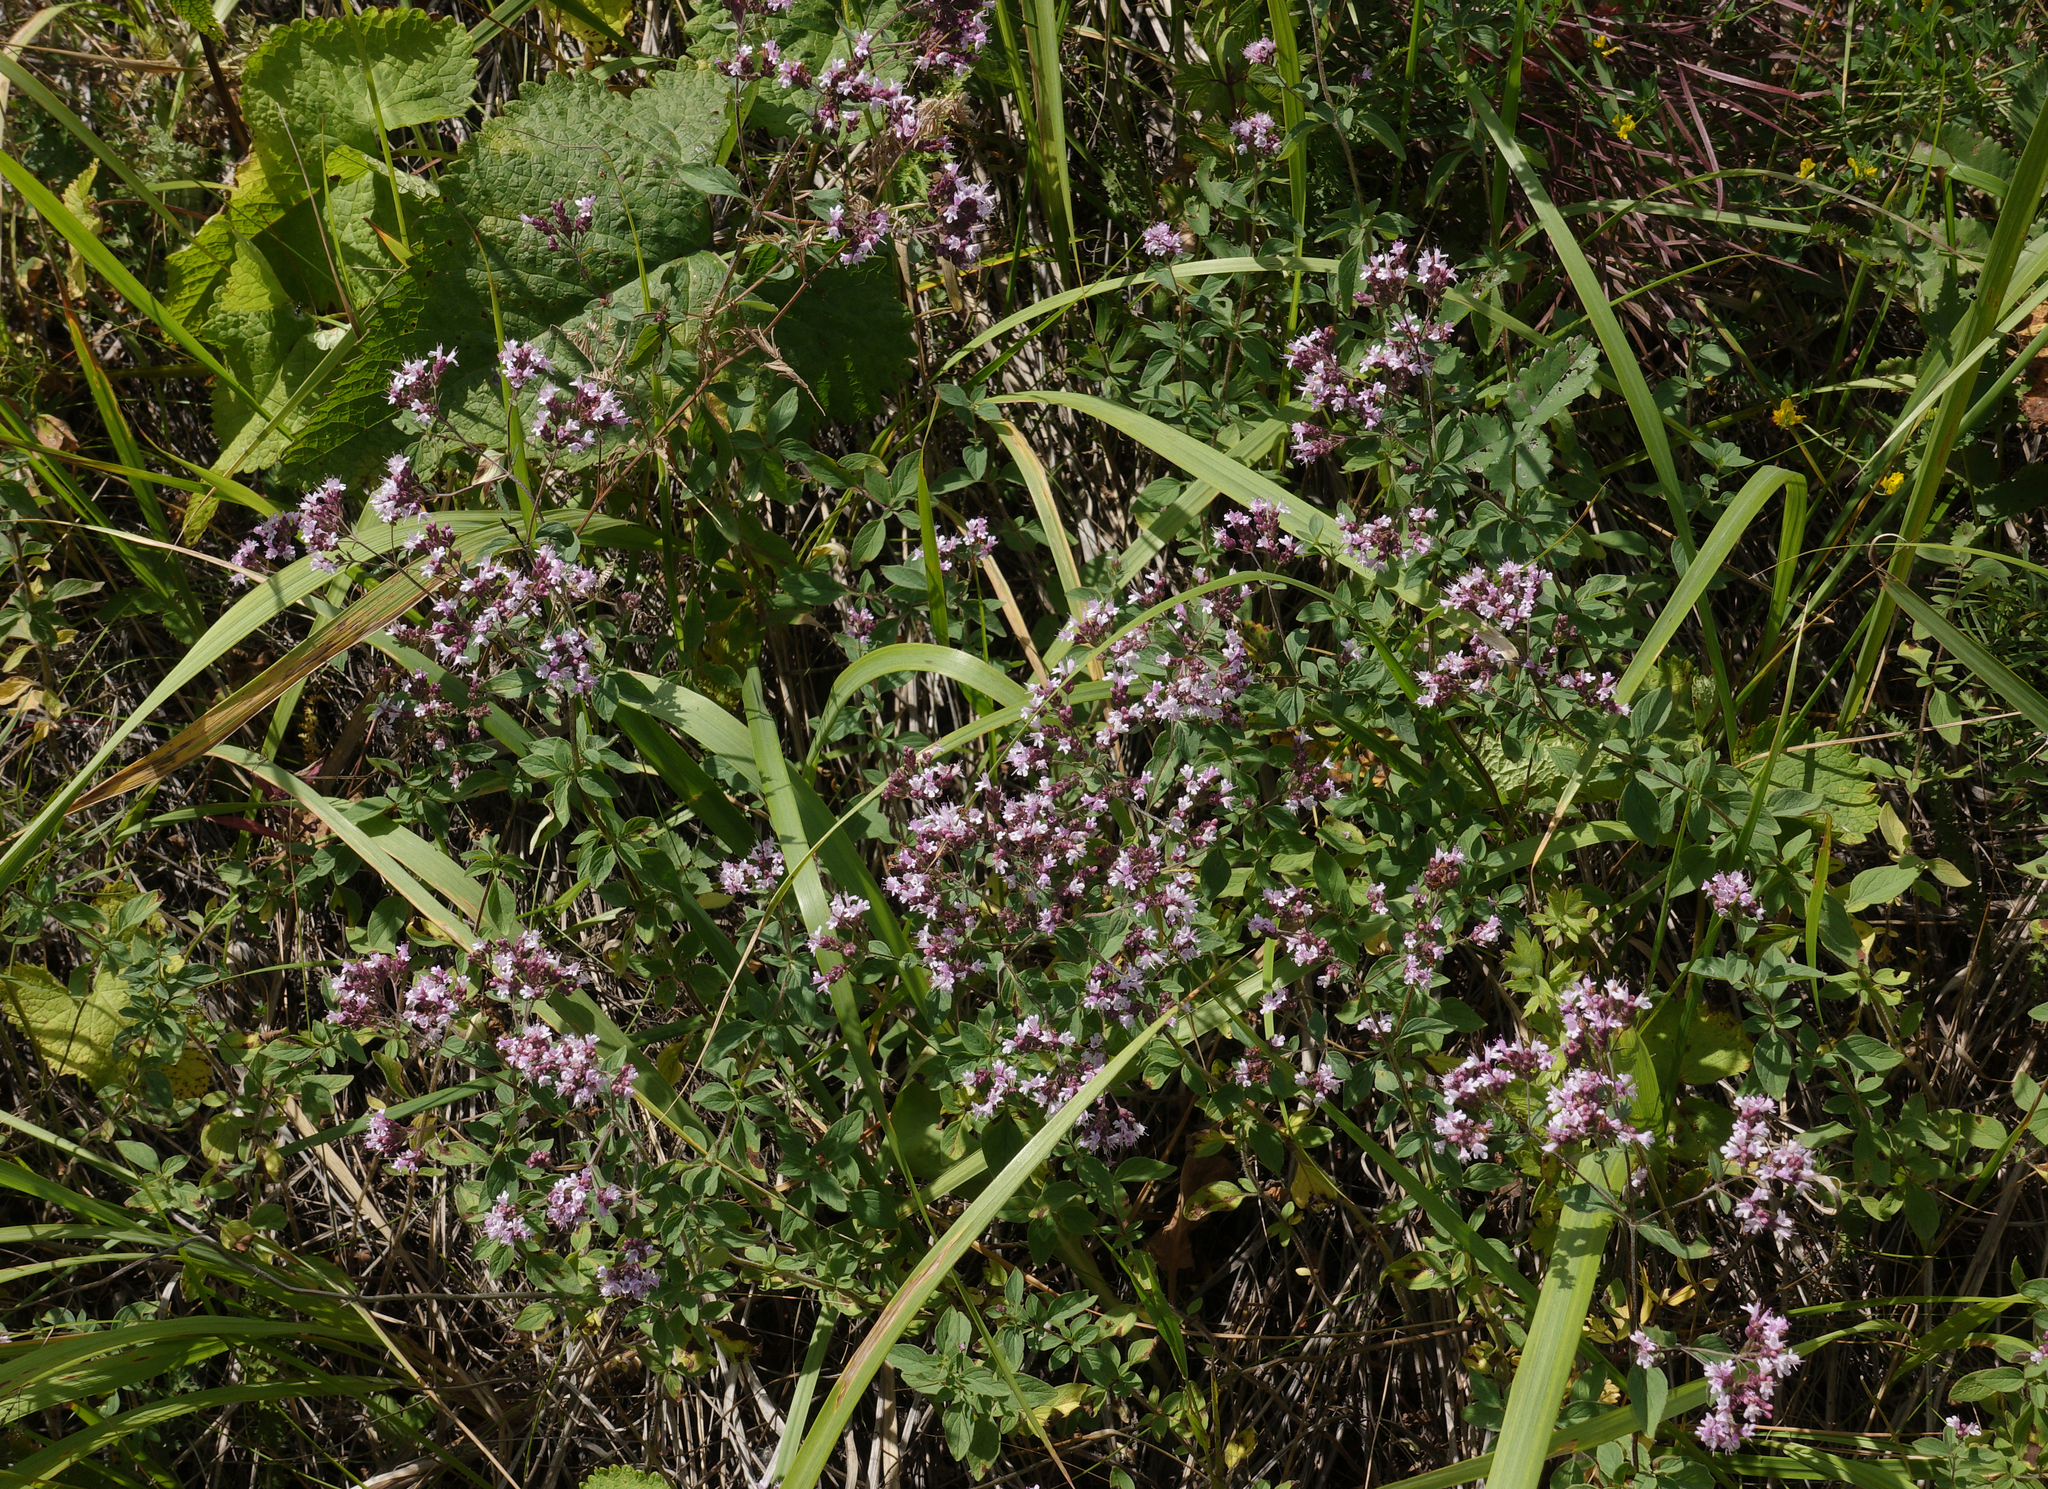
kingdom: Plantae
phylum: Tracheophyta
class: Magnoliopsida
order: Lamiales
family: Lamiaceae
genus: Origanum
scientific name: Origanum vulgare
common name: Wild marjoram
